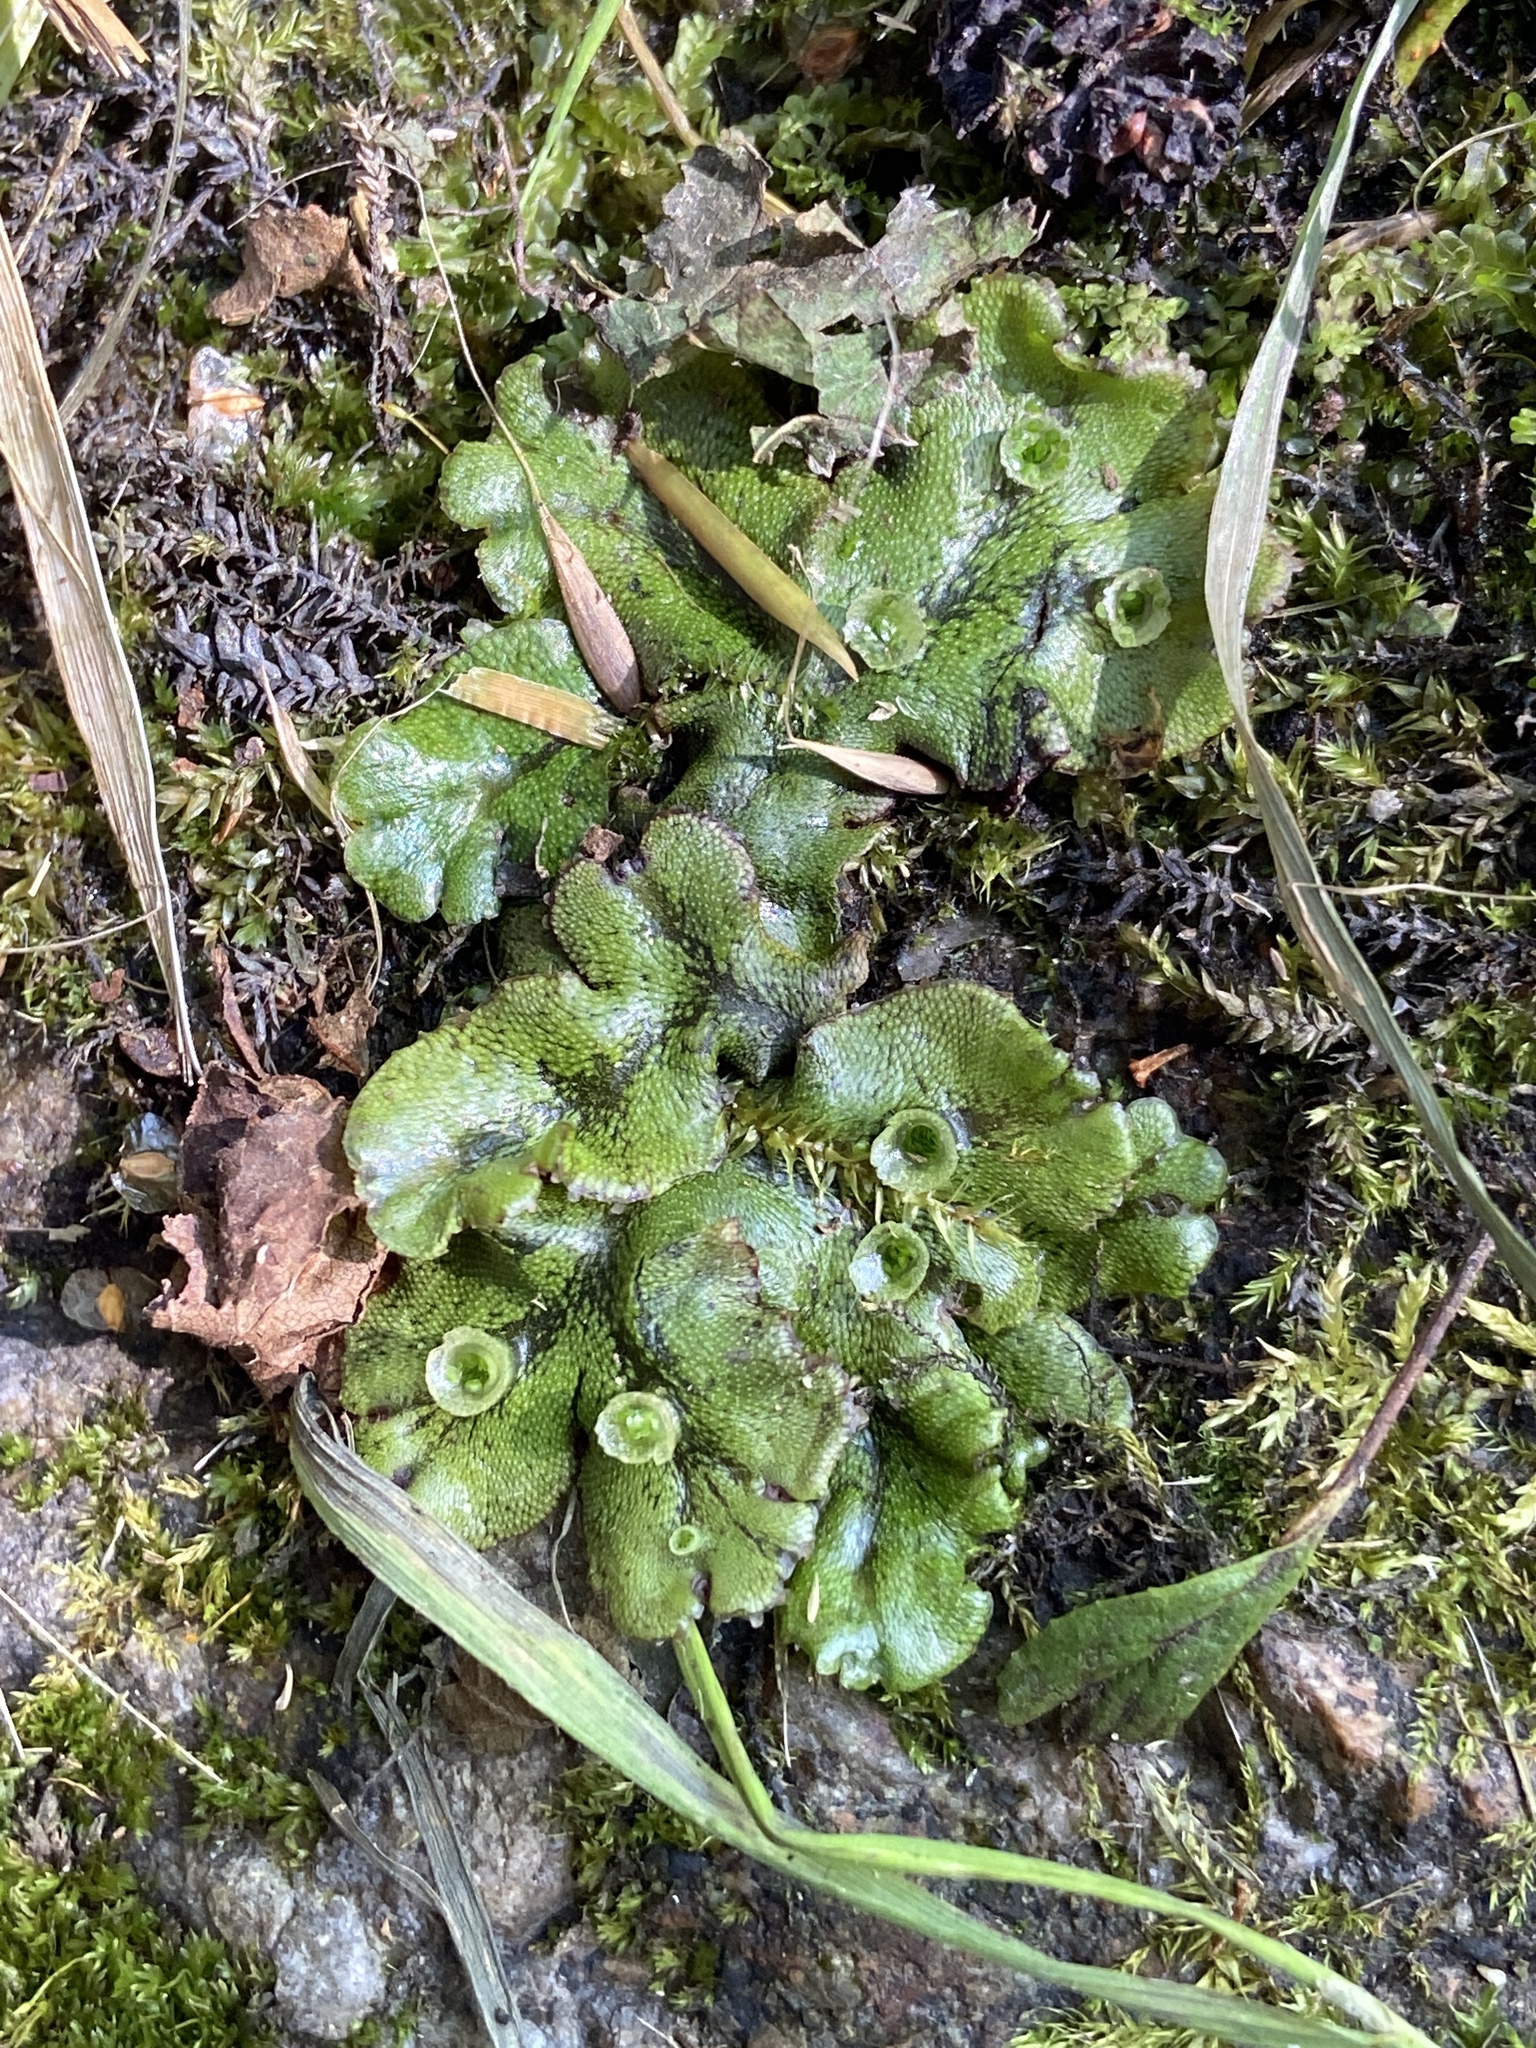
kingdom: Plantae
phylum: Marchantiophyta
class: Marchantiopsida
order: Marchantiales
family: Marchantiaceae
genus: Marchantia
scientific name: Marchantia polymorpha
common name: Common liverwort
